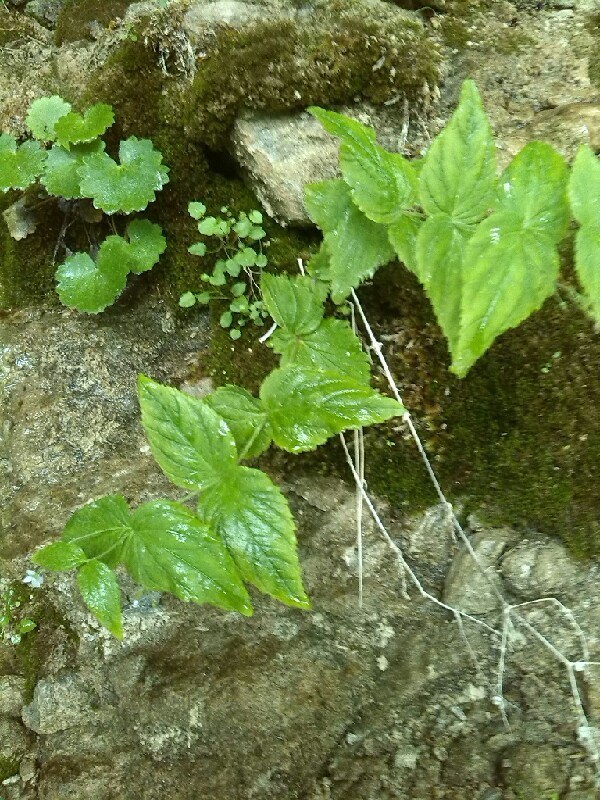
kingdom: Plantae
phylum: Tracheophyta
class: Magnoliopsida
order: Lamiales
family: Plantaginaceae
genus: Veronica
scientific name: Veronica urticifolia
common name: Nettle-leaf speedwell
